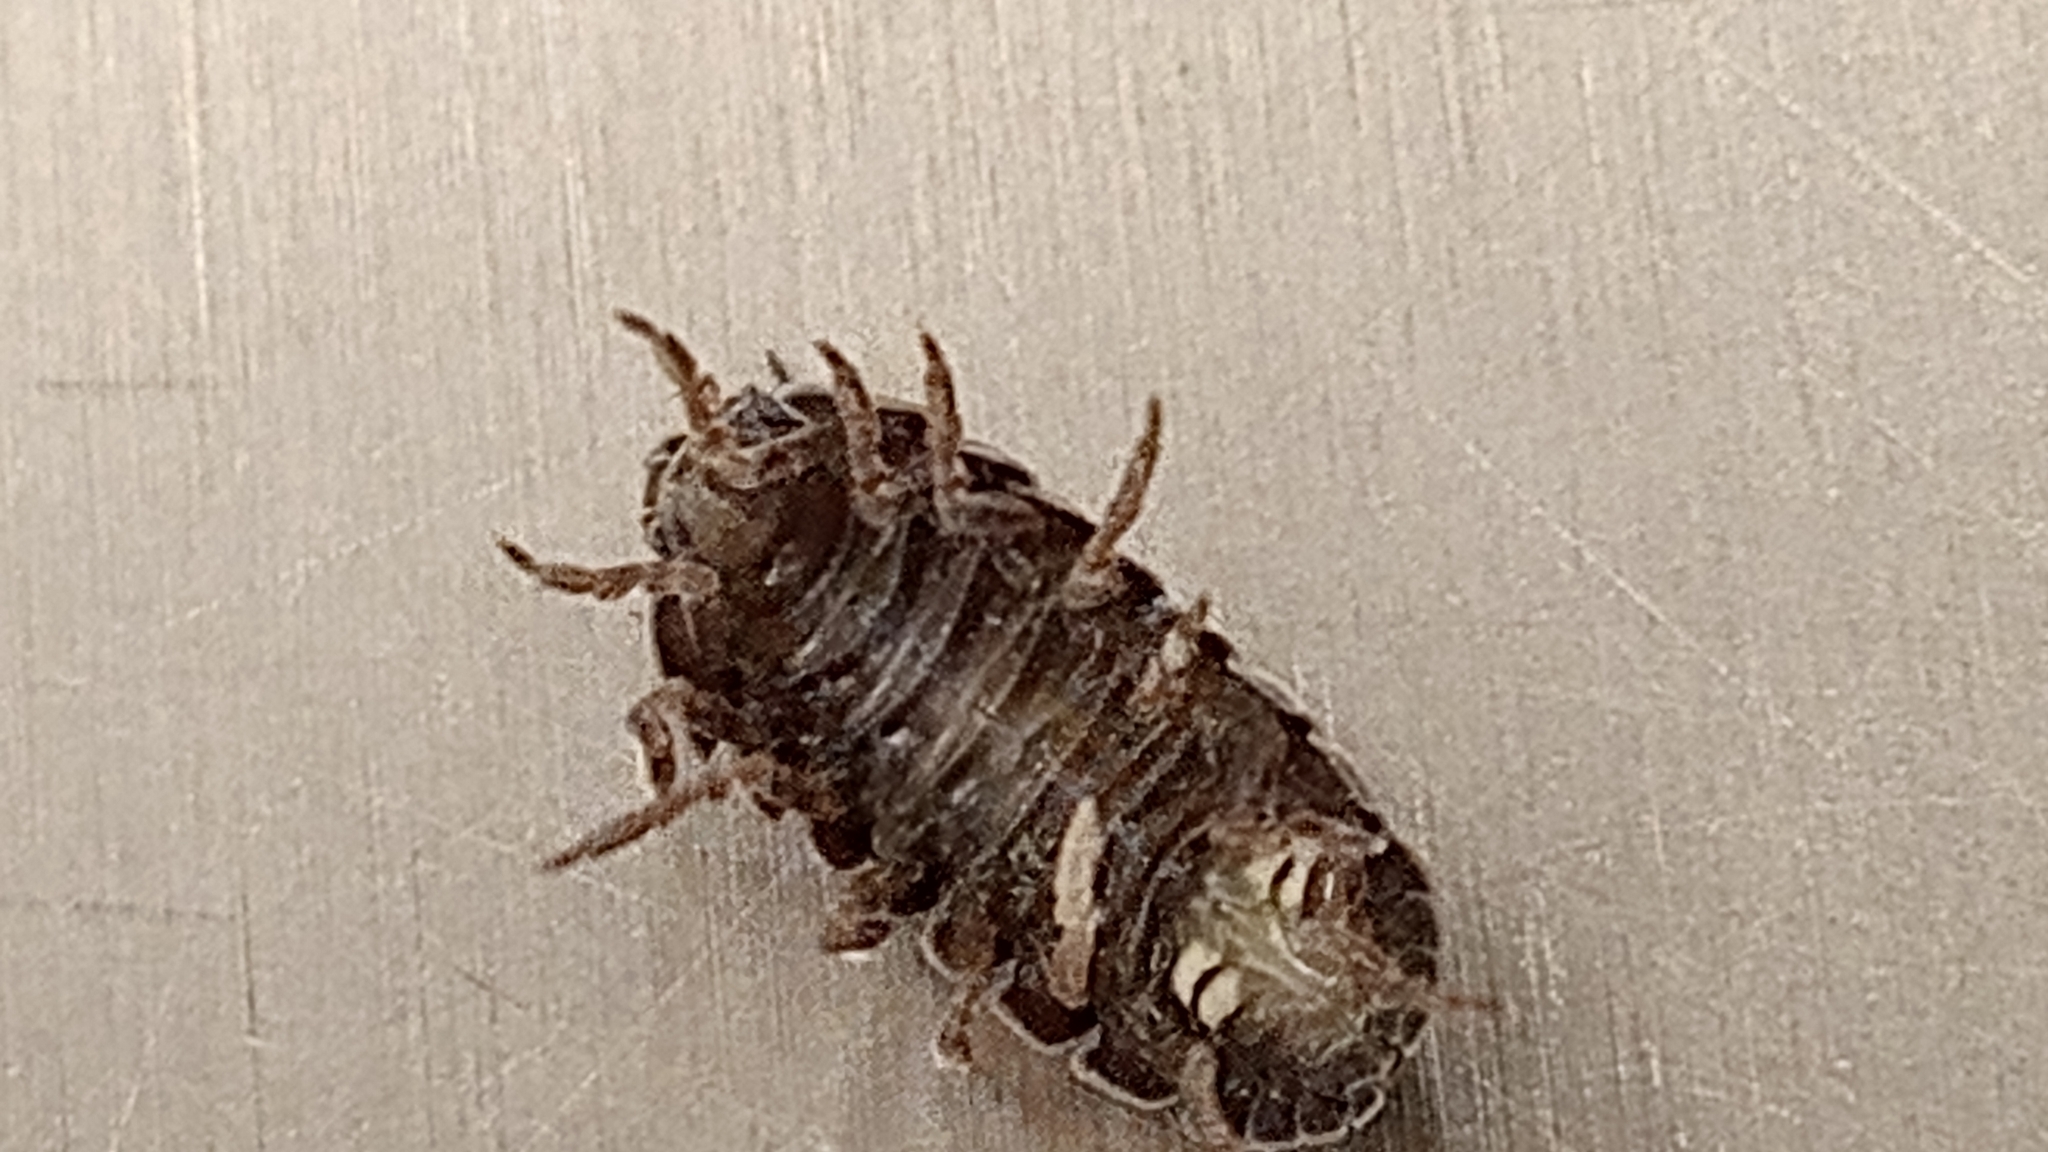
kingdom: Animalia
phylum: Arthropoda
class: Malacostraca
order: Isopoda
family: Armadillidiidae
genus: Armadillidium
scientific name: Armadillidium vulgare
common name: Common pill woodlouse
